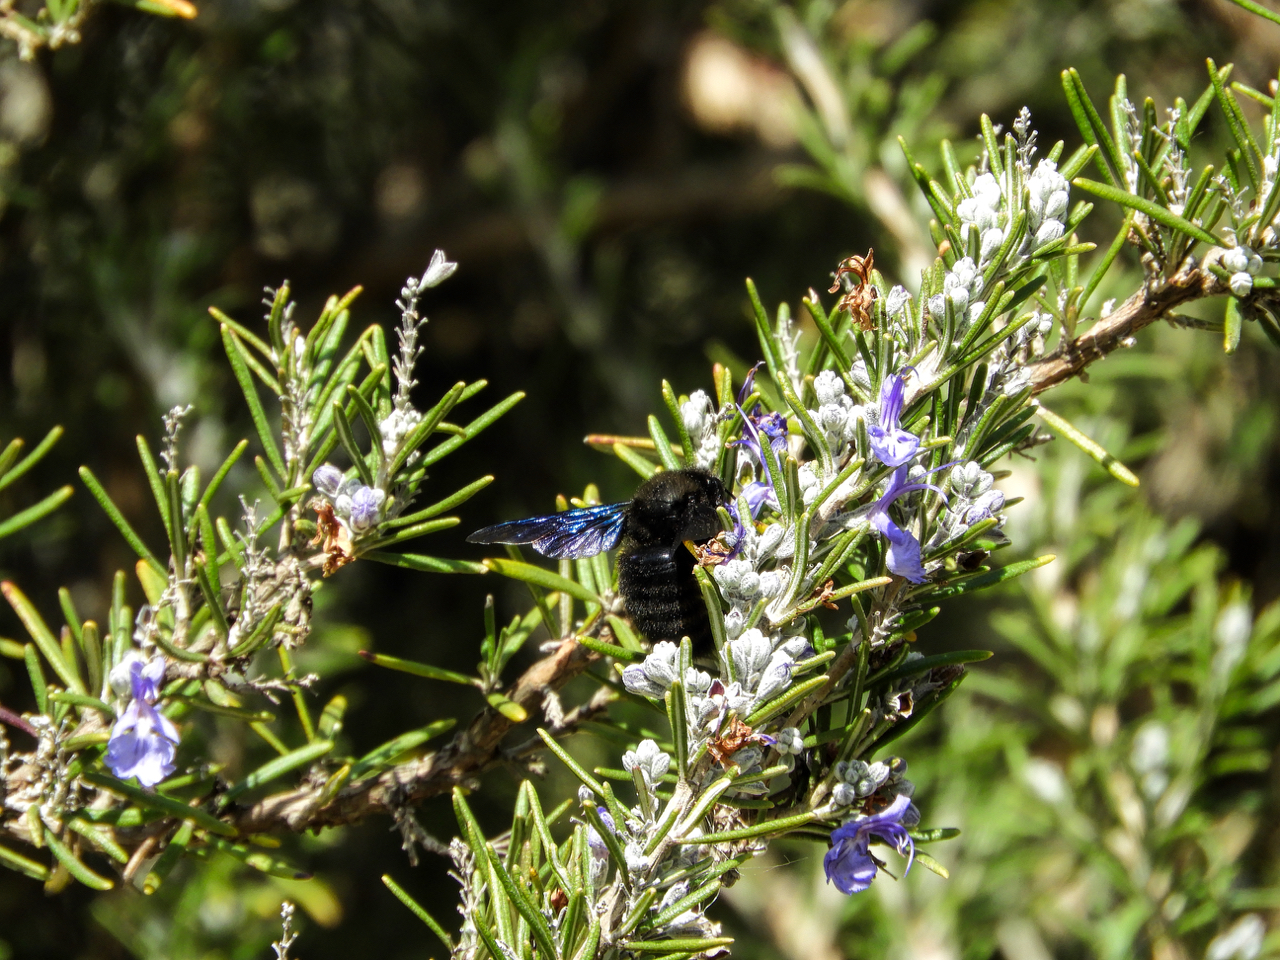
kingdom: Animalia
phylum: Arthropoda
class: Insecta
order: Hymenoptera
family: Apidae
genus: Xylocopa
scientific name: Xylocopa violacea
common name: Violet carpenter bee
